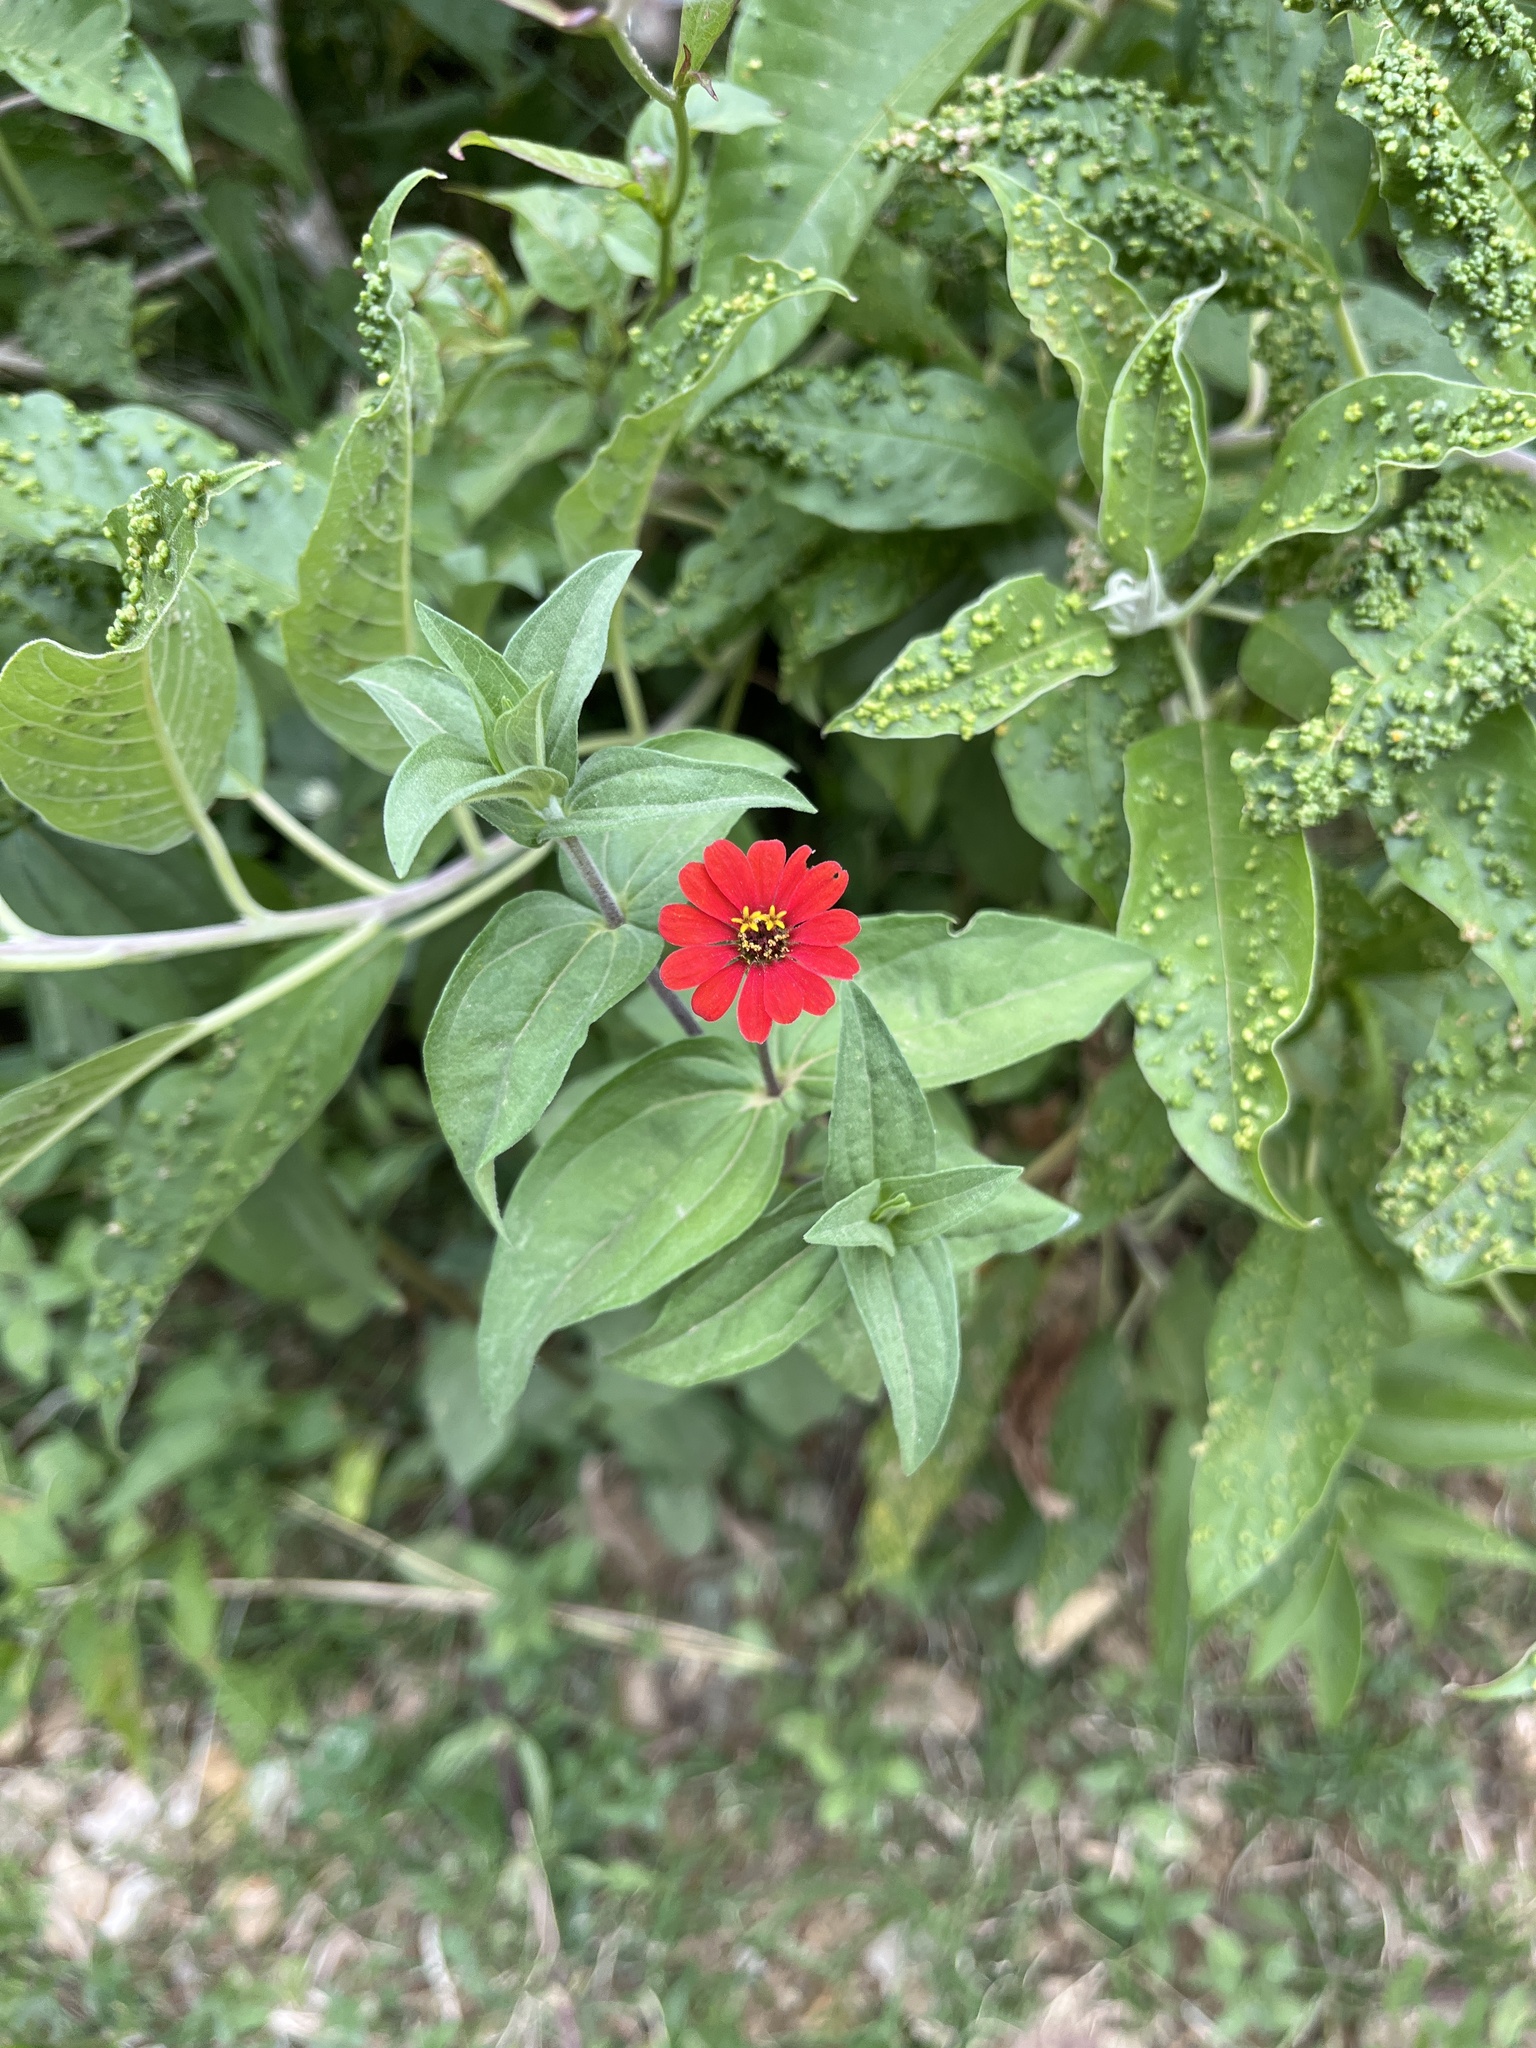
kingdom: Plantae
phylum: Tracheophyta
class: Magnoliopsida
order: Asterales
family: Asteraceae
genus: Zinnia
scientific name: Zinnia peruviana
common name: Peruvian zinnia
